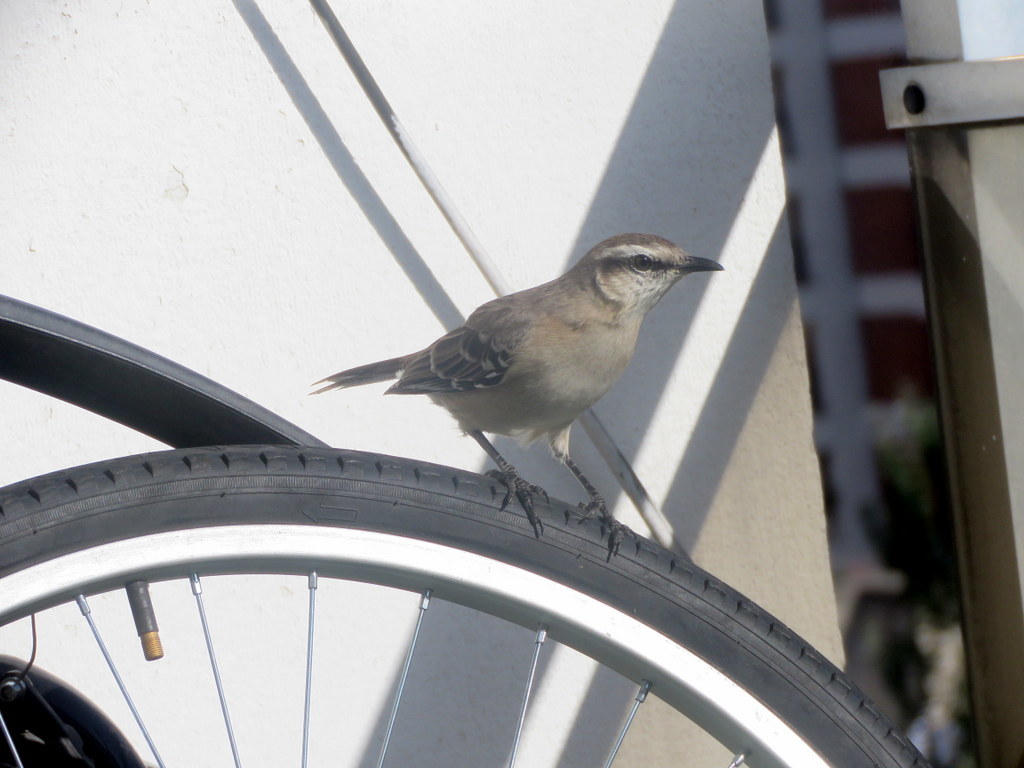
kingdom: Animalia
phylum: Chordata
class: Aves
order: Passeriformes
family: Mimidae
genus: Mimus
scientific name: Mimus saturninus
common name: Chalk-browed mockingbird
